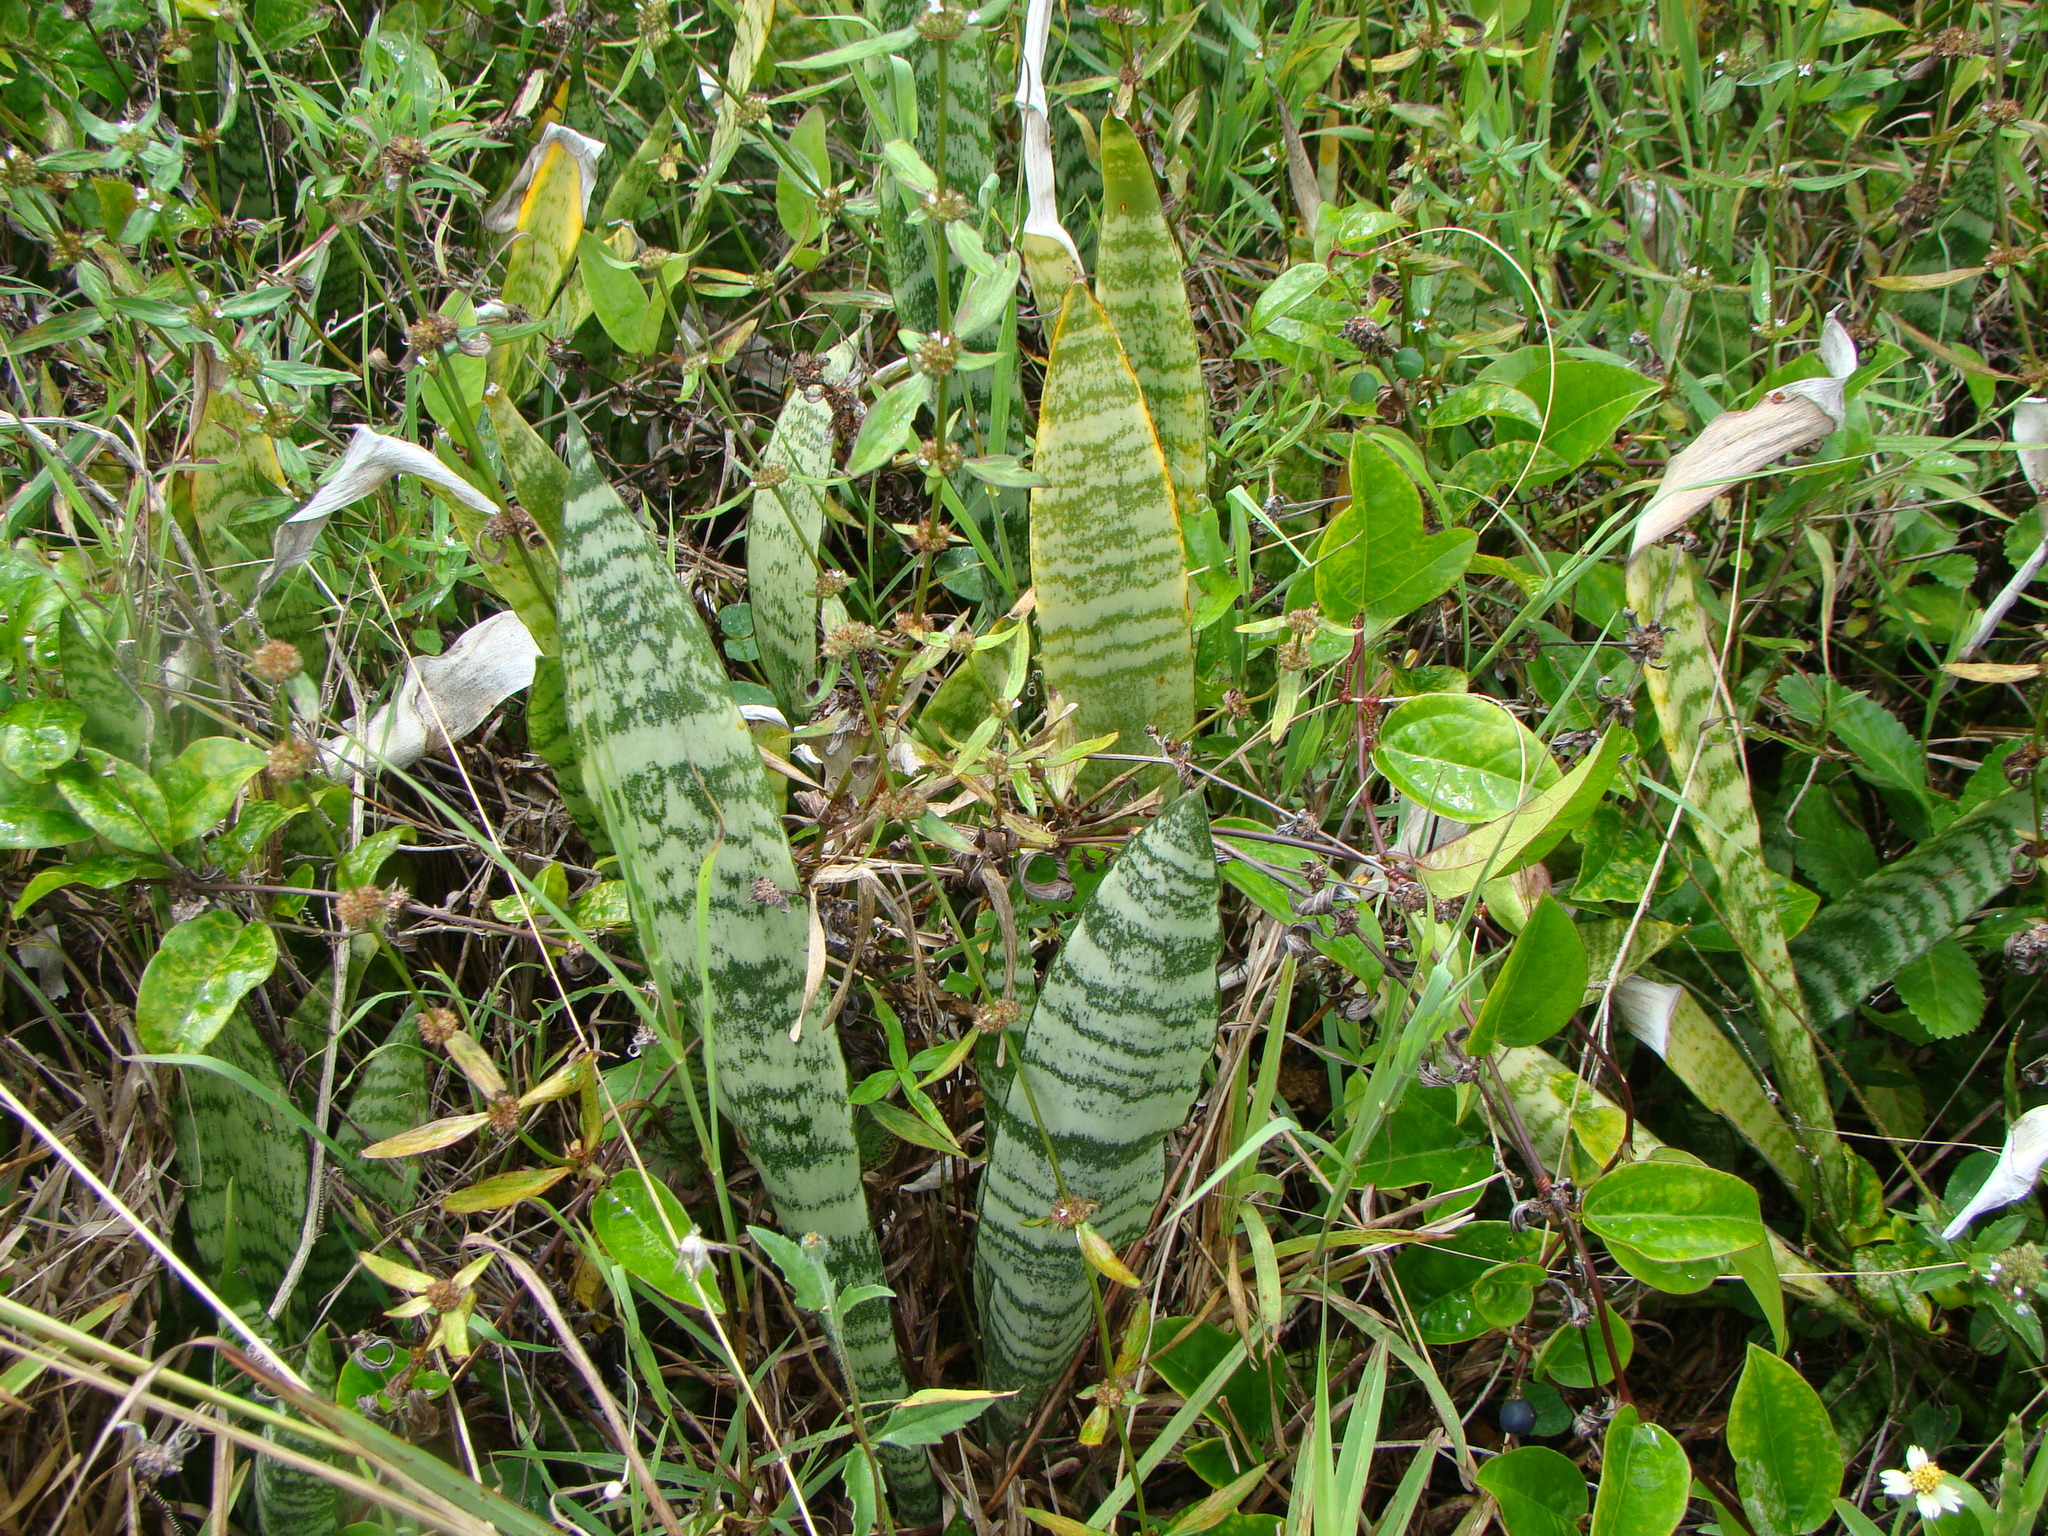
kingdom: Plantae
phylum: Tracheophyta
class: Liliopsida
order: Asparagales
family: Asparagaceae
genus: Dracaena
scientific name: Dracaena trifasciata
